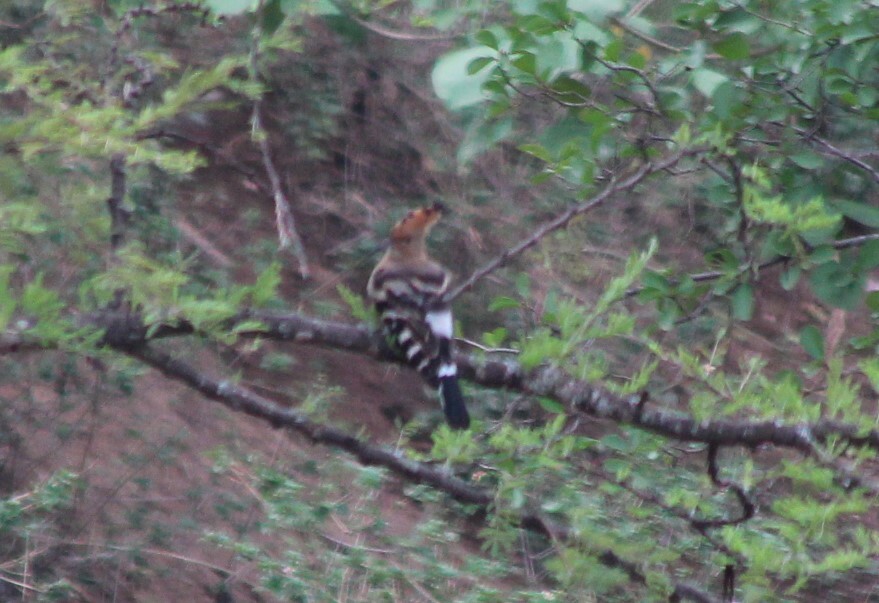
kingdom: Animalia
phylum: Chordata
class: Aves
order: Bucerotiformes
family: Upupidae
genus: Upupa
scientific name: Upupa africana
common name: African hoopoe
